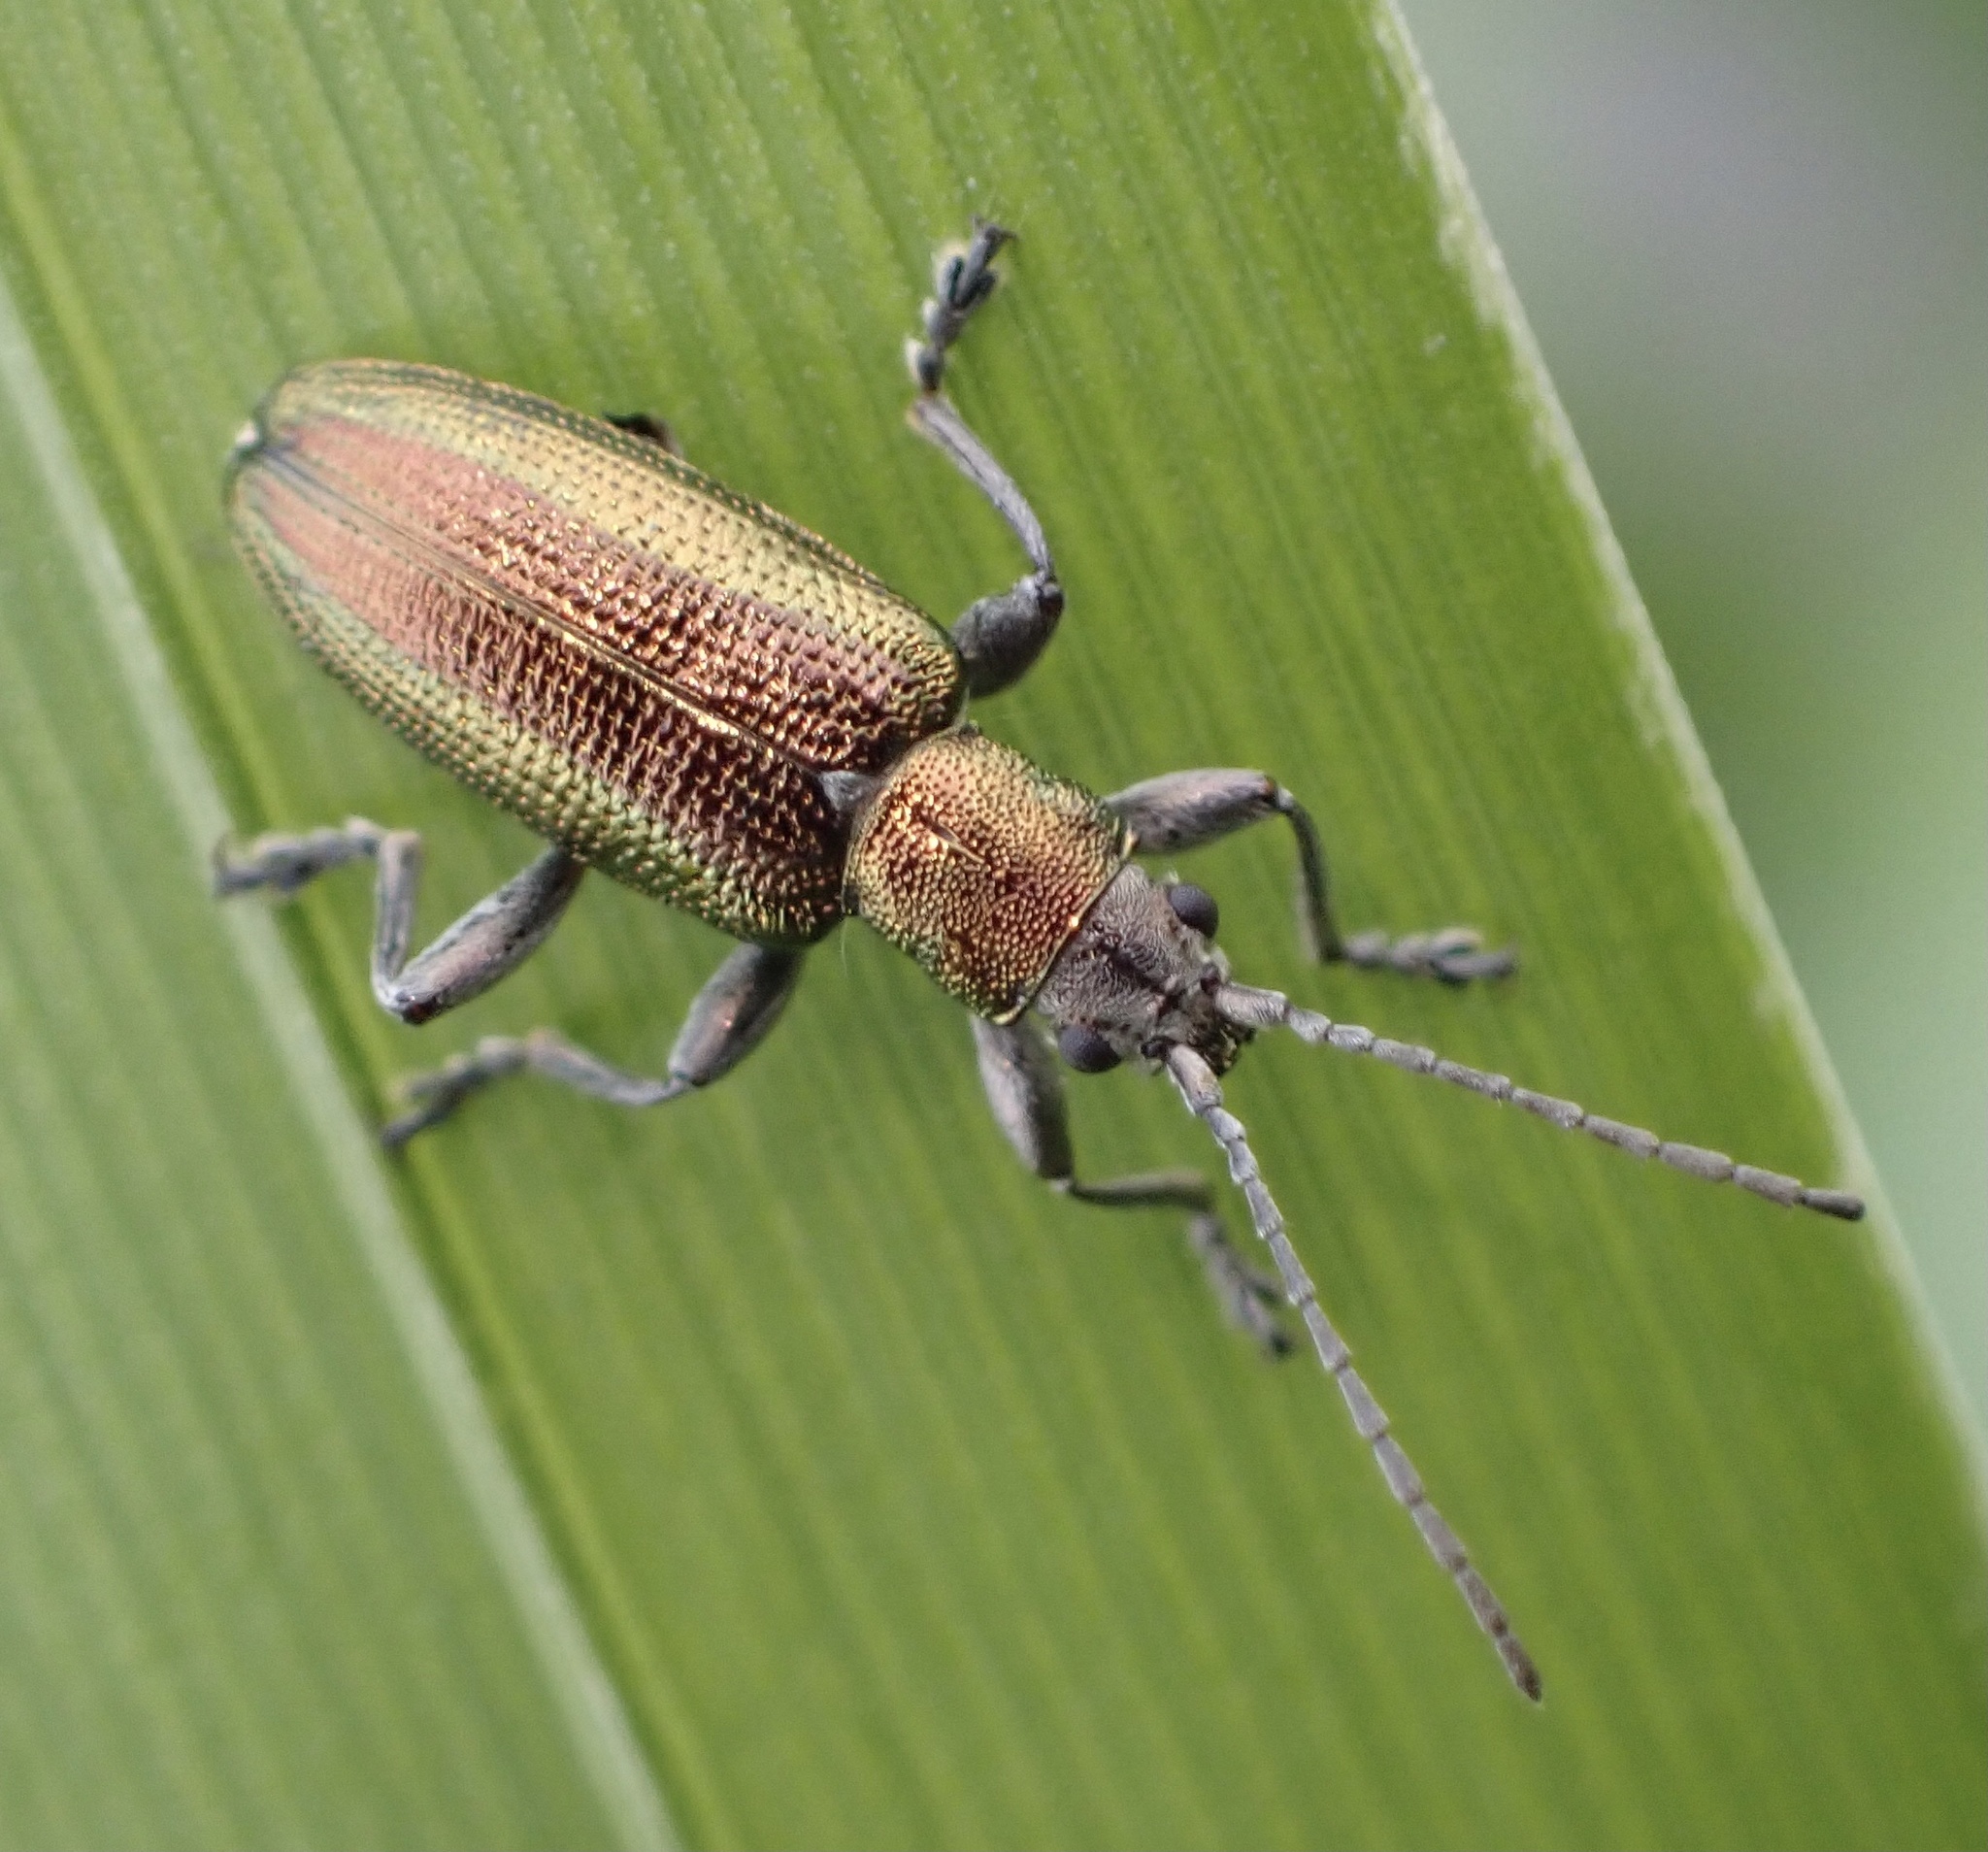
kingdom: Animalia
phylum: Arthropoda
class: Insecta
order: Coleoptera
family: Chrysomelidae
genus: Donacia
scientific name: Donacia semicuprea
